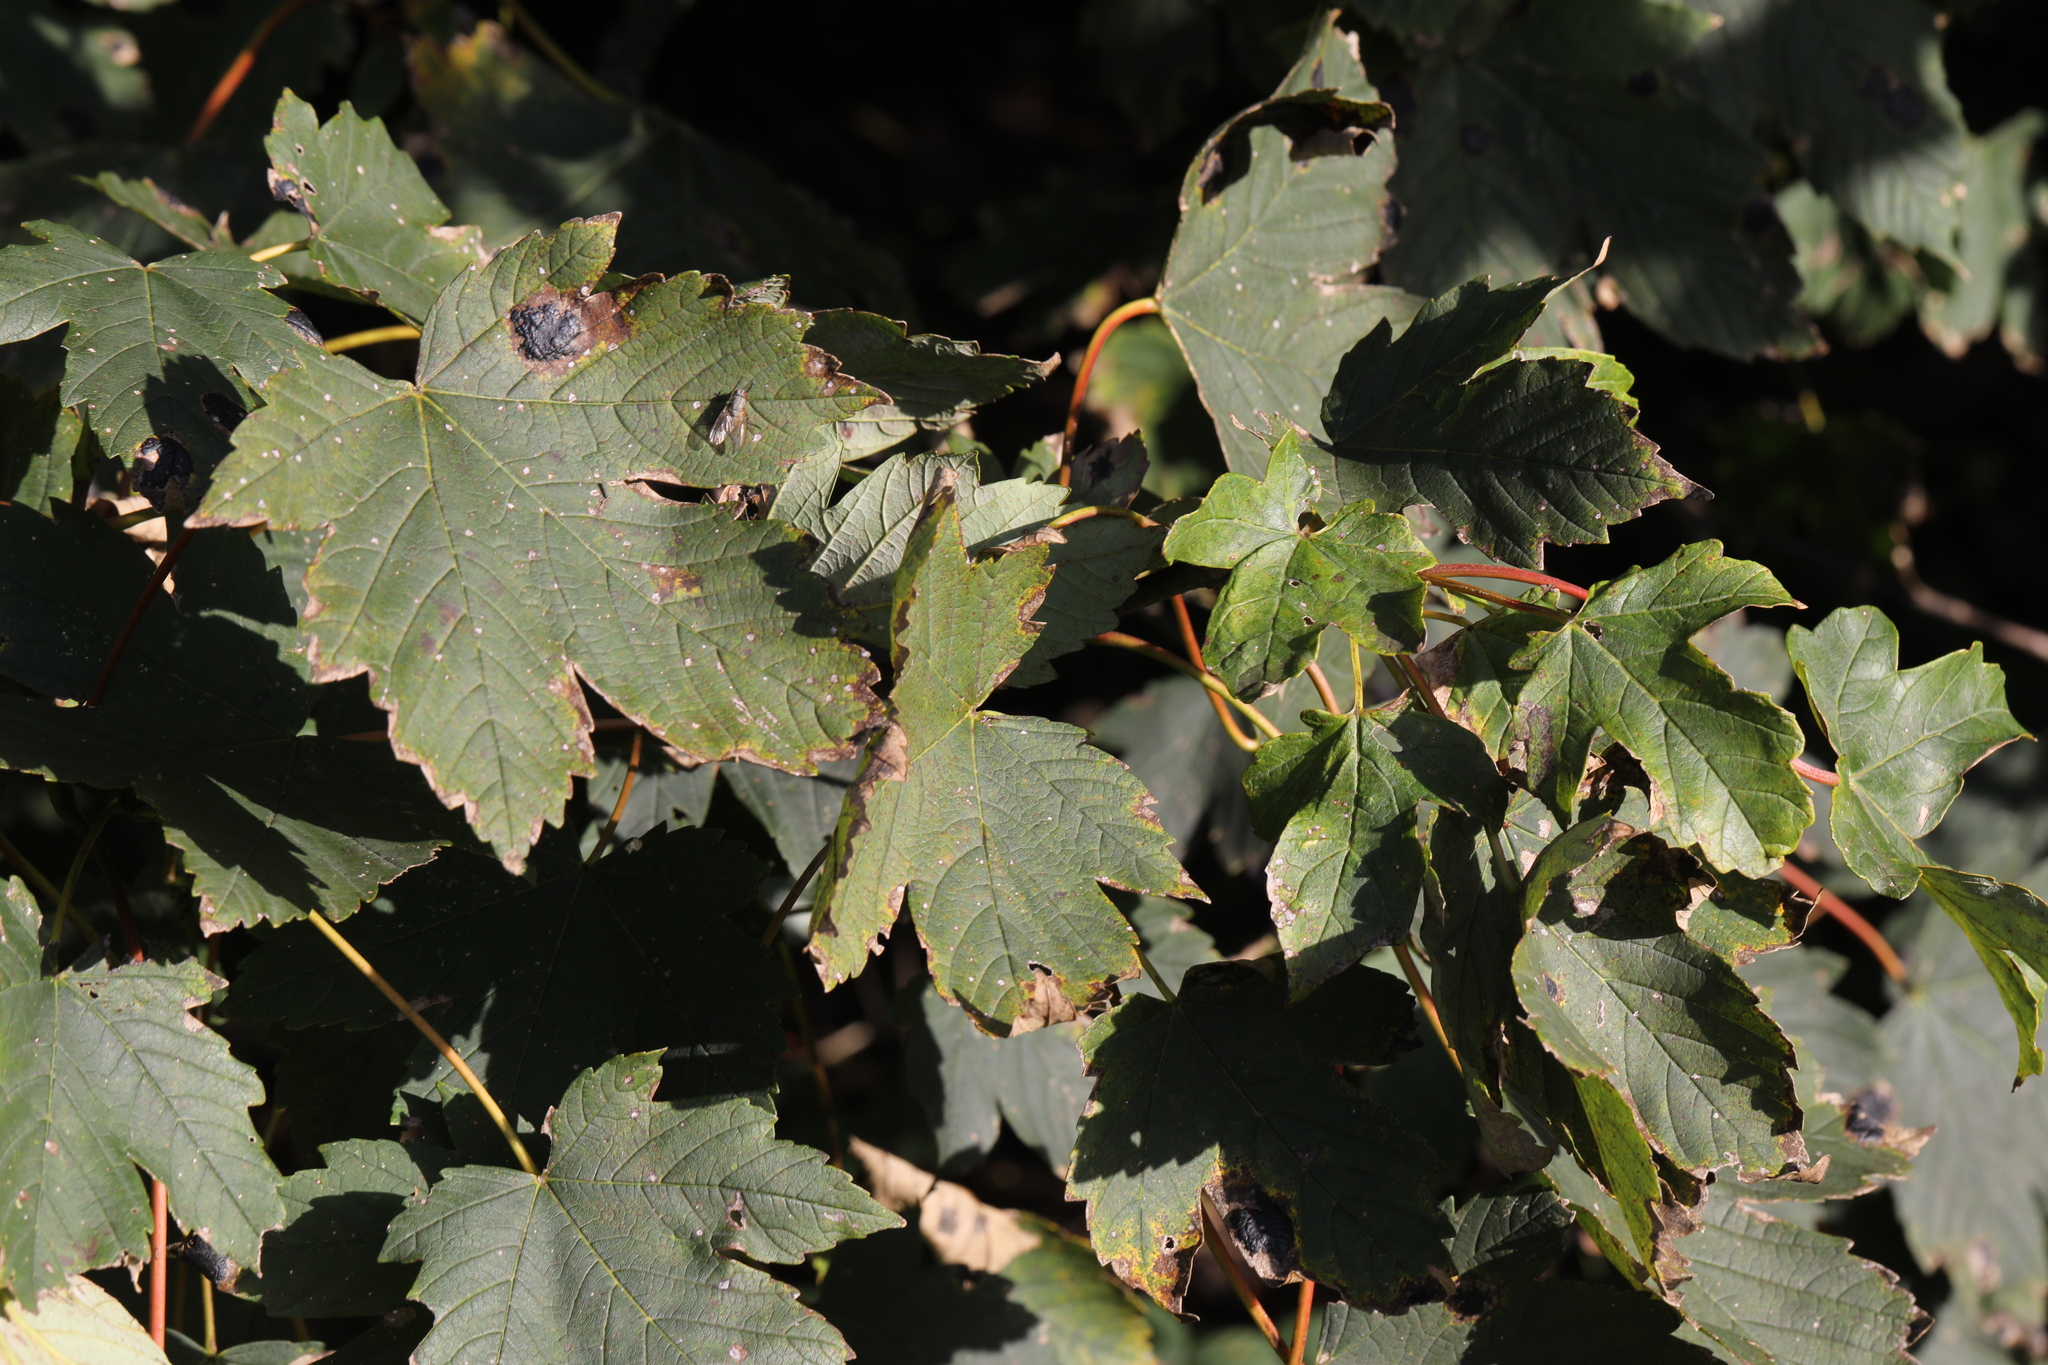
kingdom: Plantae
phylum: Tracheophyta
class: Magnoliopsida
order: Sapindales
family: Sapindaceae
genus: Acer
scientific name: Acer pseudoplatanus
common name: Sycamore
